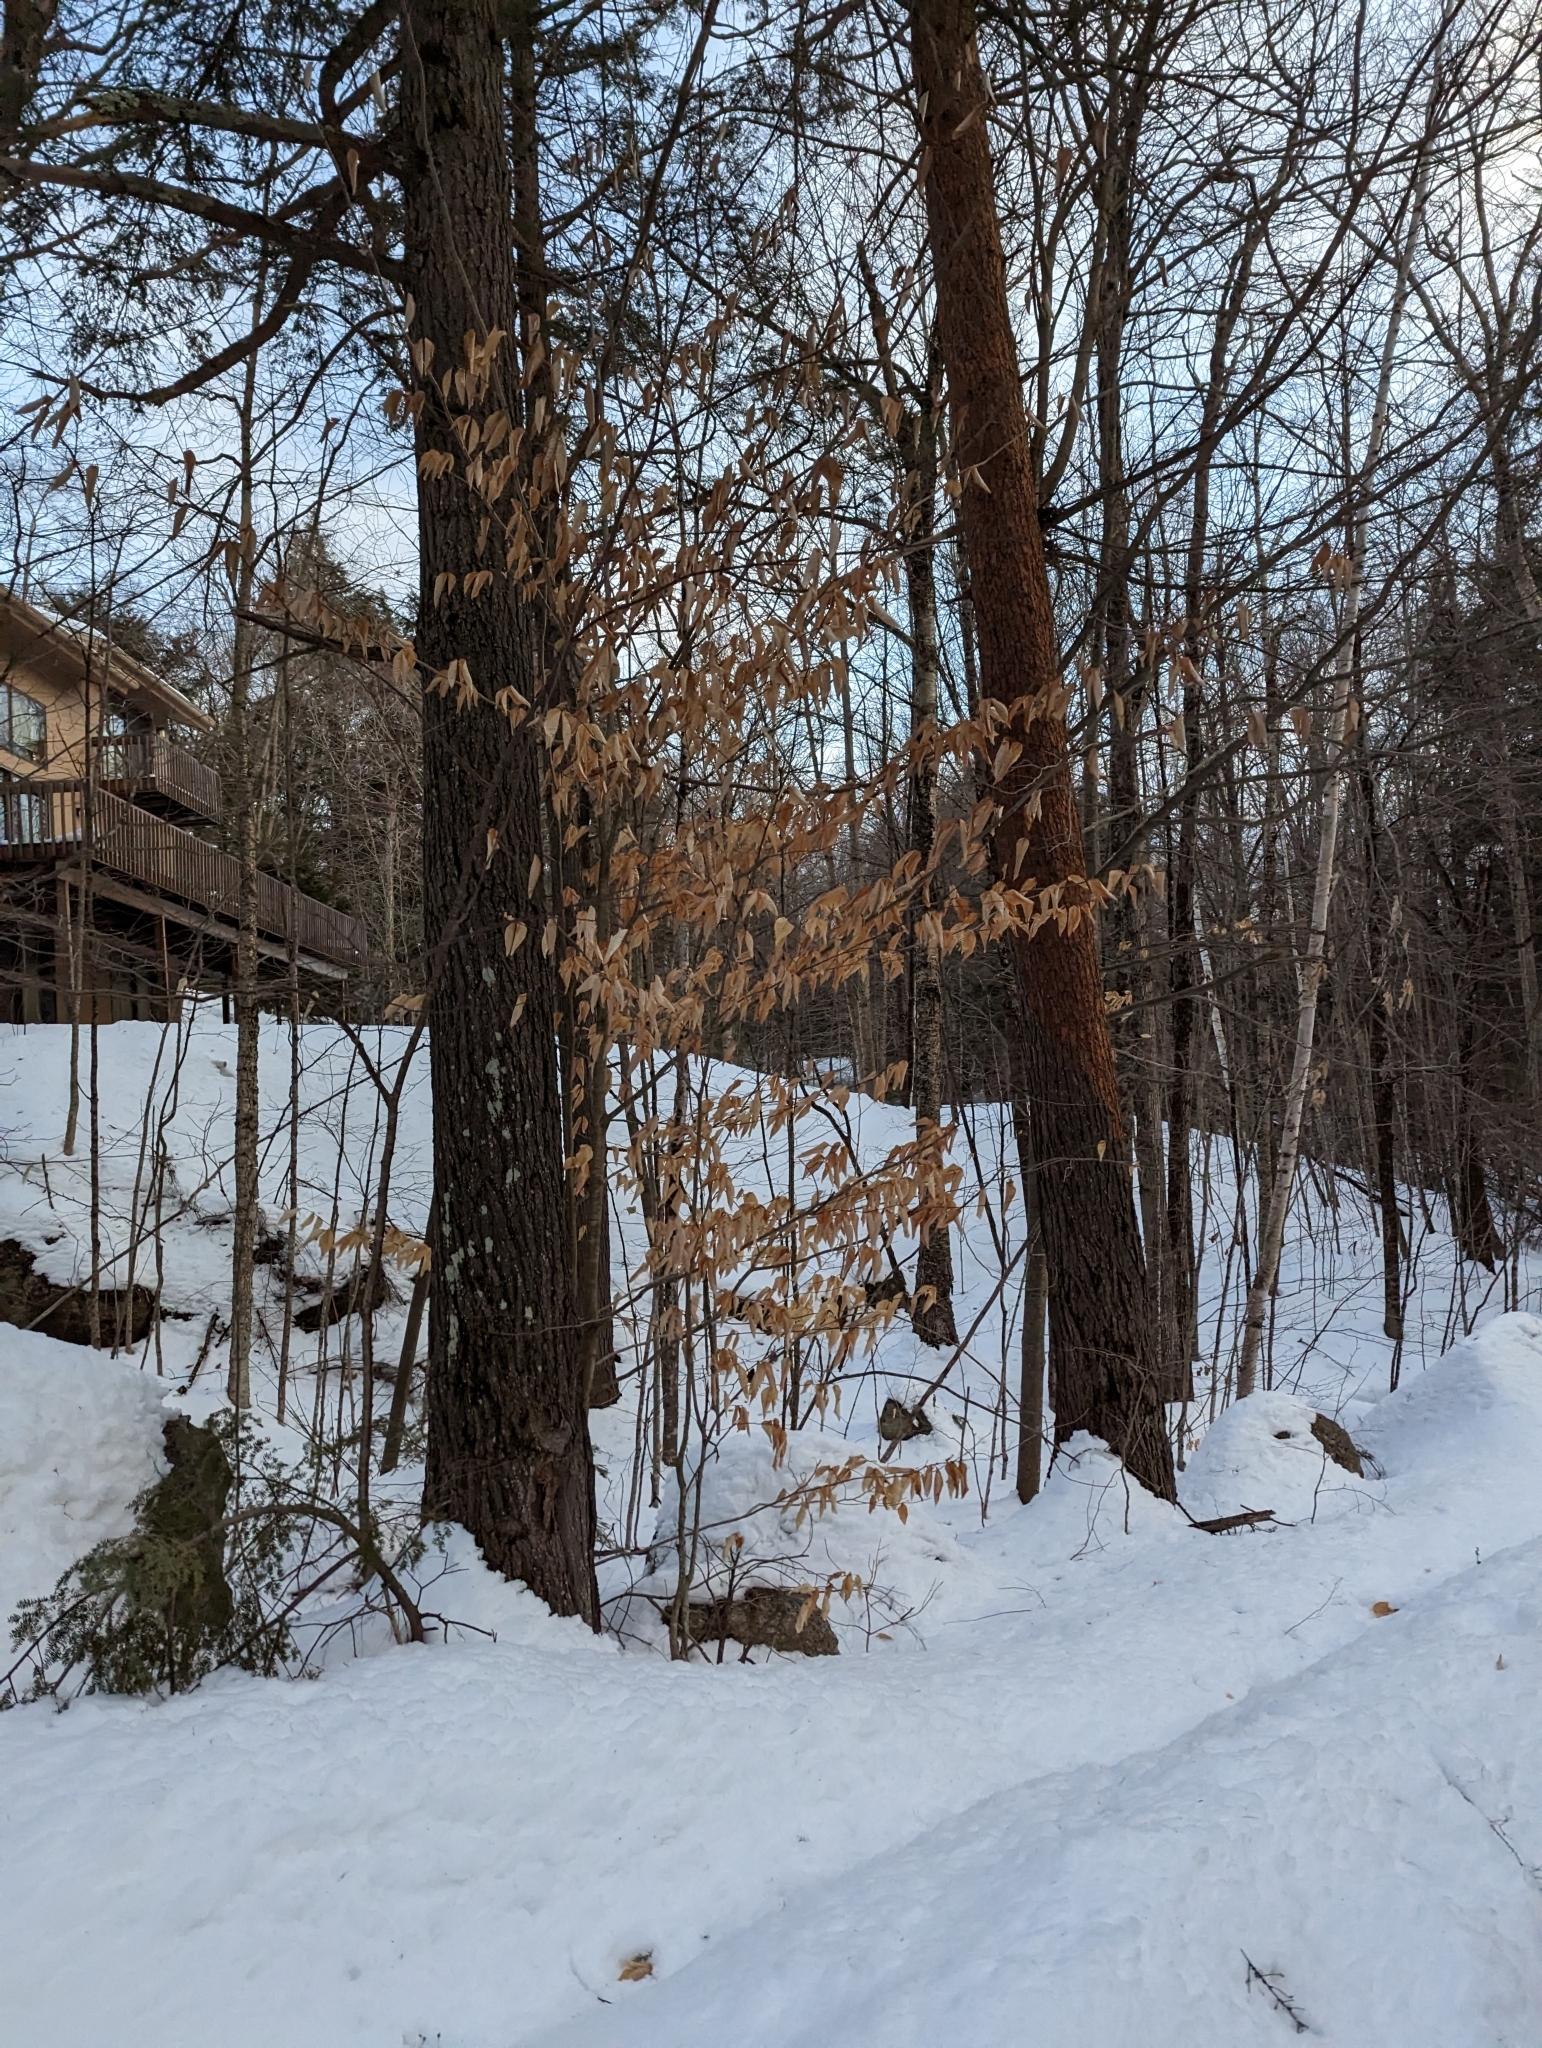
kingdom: Plantae
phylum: Tracheophyta
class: Magnoliopsida
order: Fagales
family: Fagaceae
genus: Fagus
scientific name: Fagus grandifolia
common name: American beech
